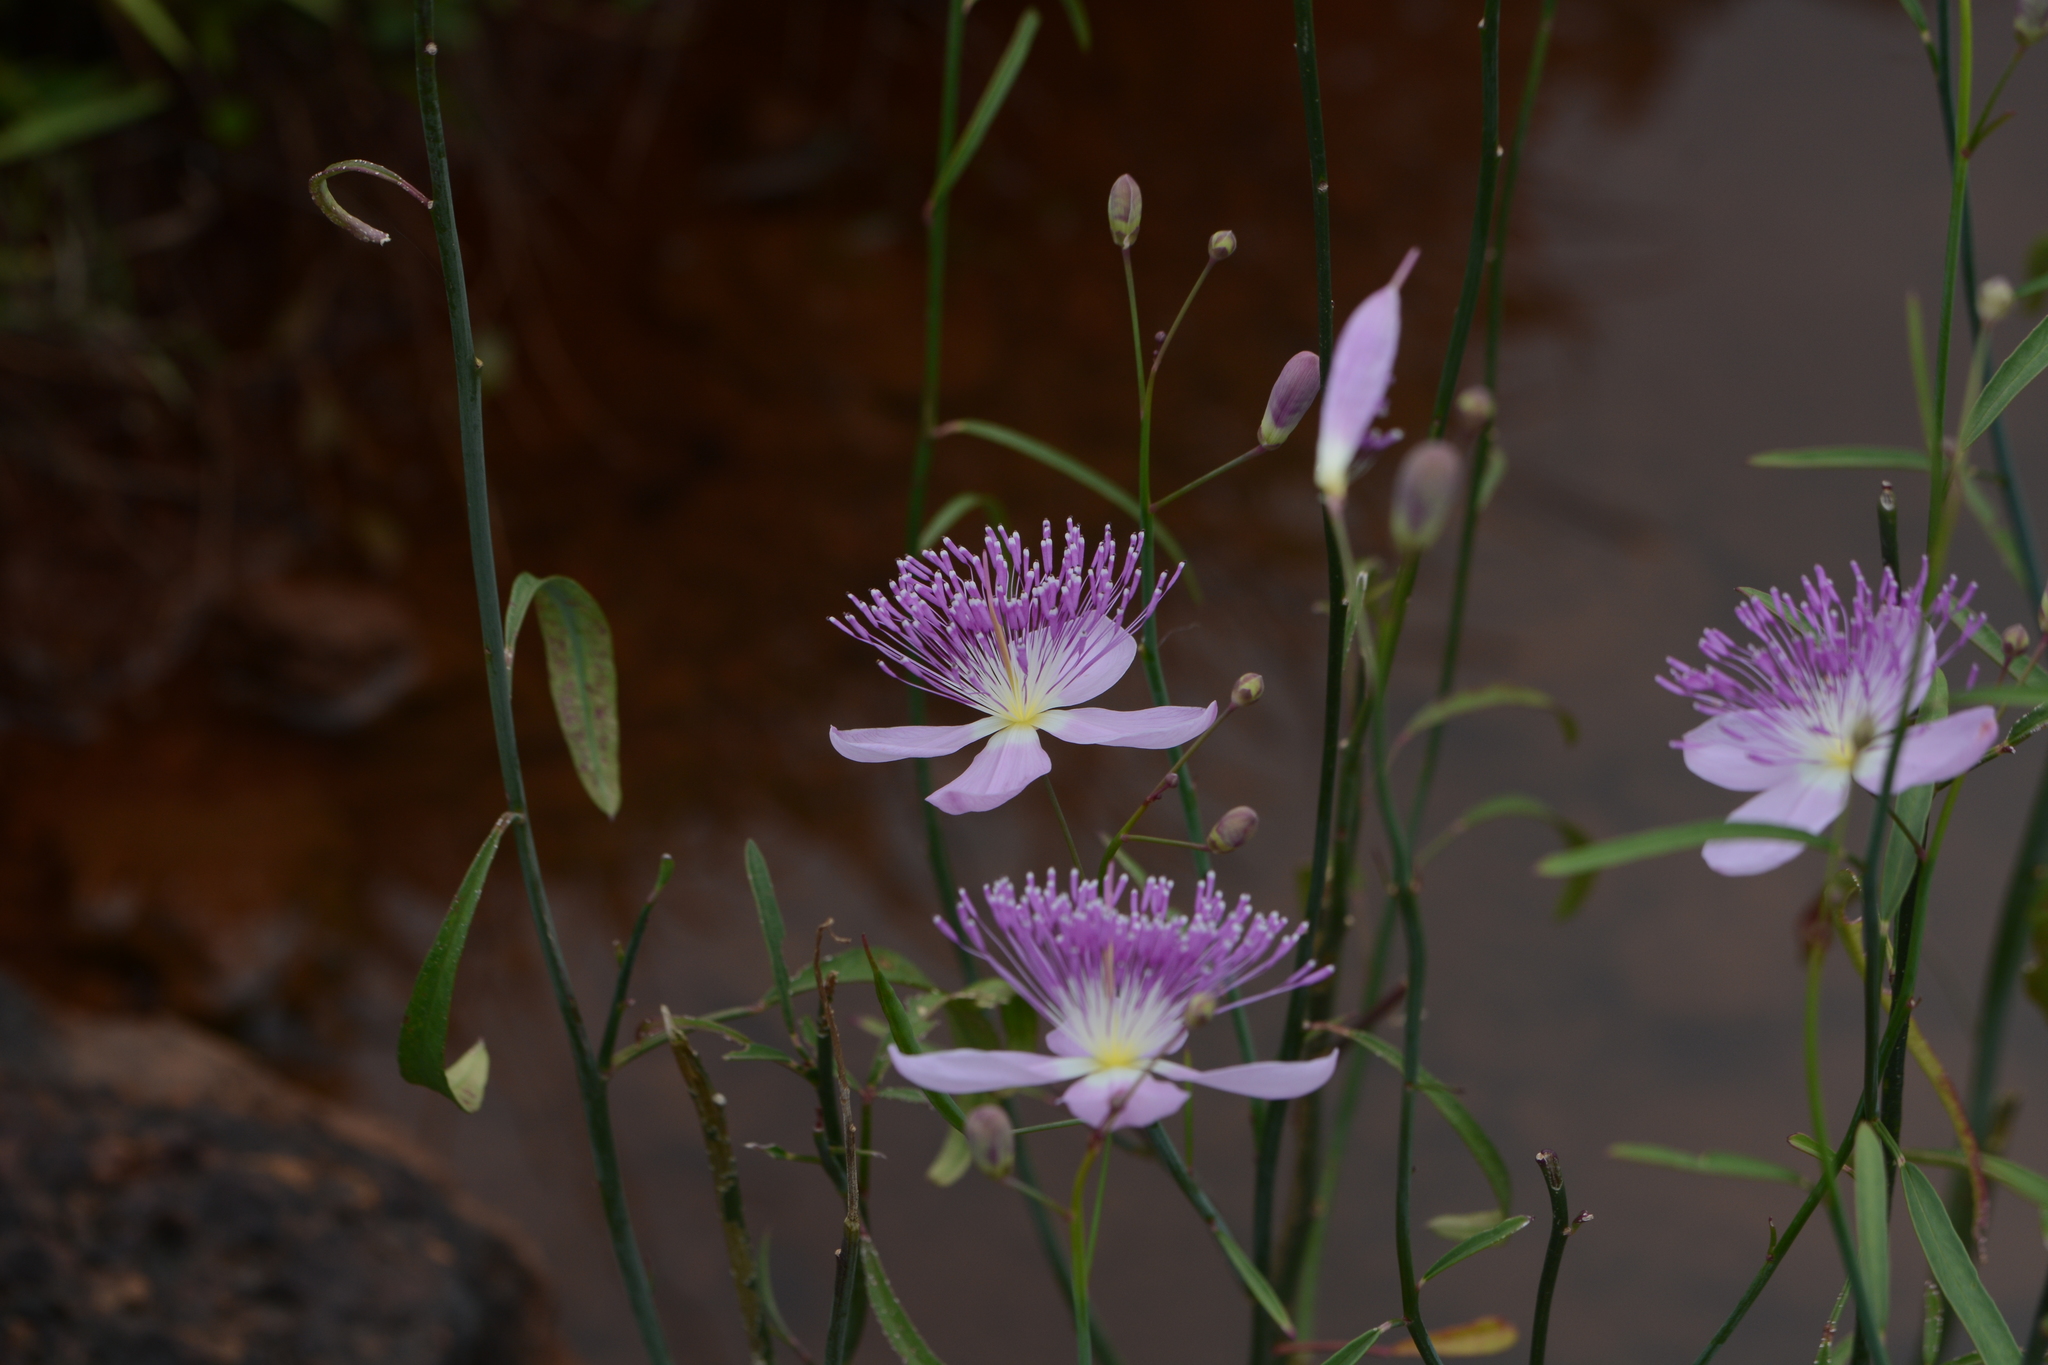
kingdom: Plantae
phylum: Tracheophyta
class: Magnoliopsida
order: Brassicales
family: Cleomaceae
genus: Corynandra
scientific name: Corynandra chelidonii
